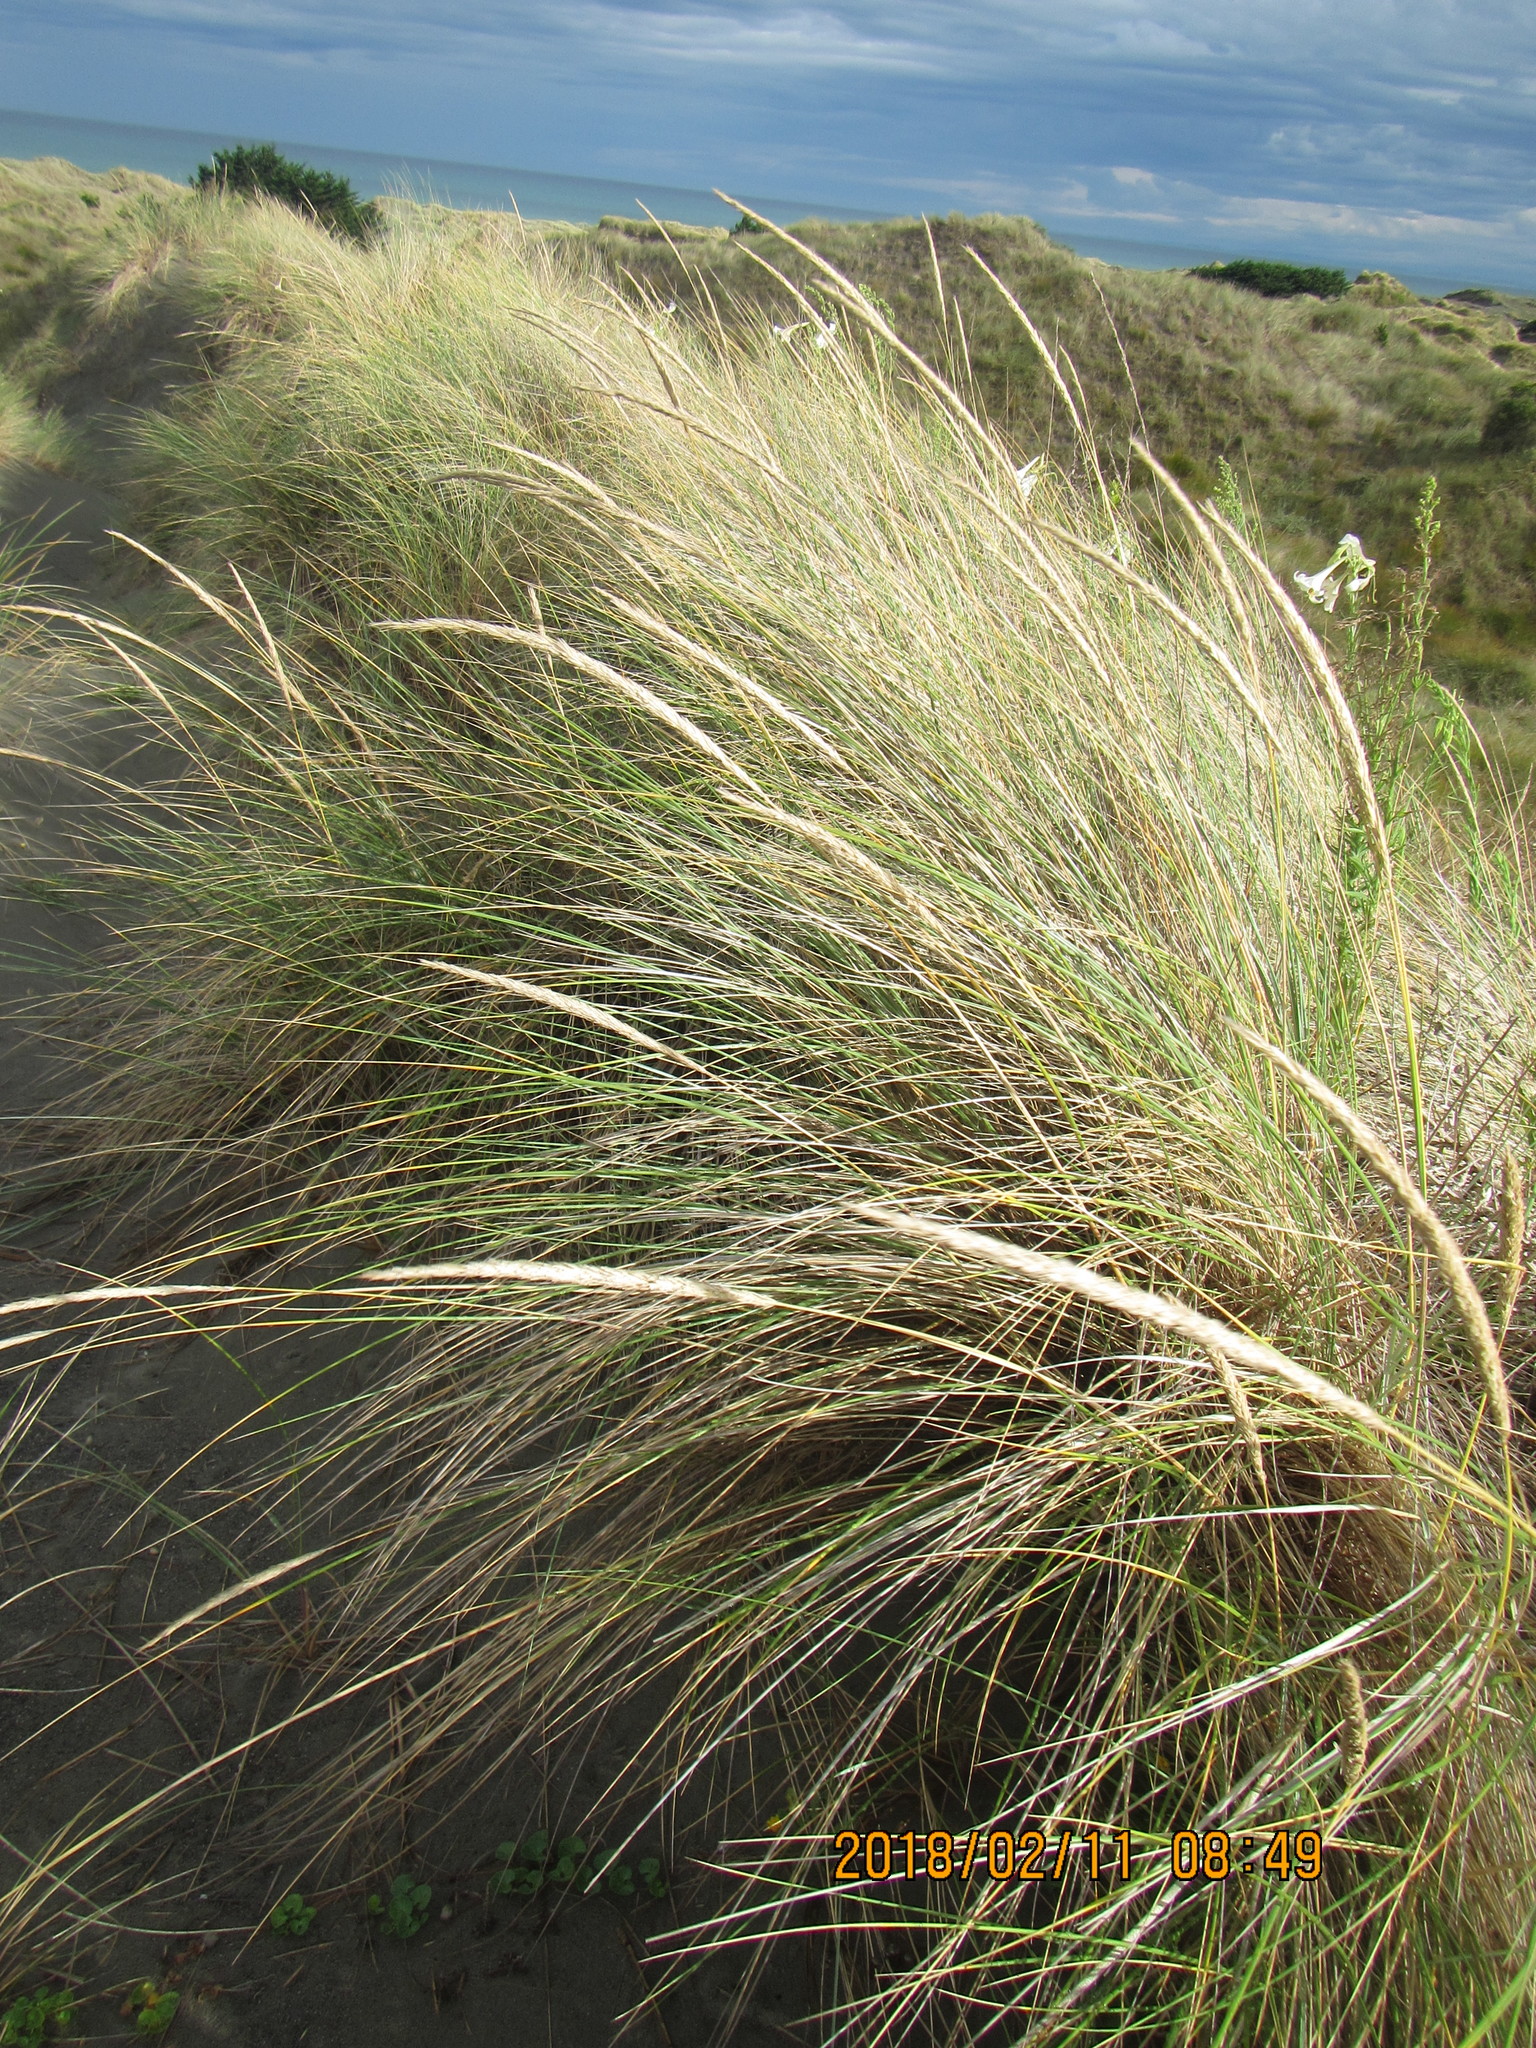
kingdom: Plantae
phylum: Tracheophyta
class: Liliopsida
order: Poales
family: Poaceae
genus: Calamagrostis
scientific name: Calamagrostis arenaria
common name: European beachgrass
